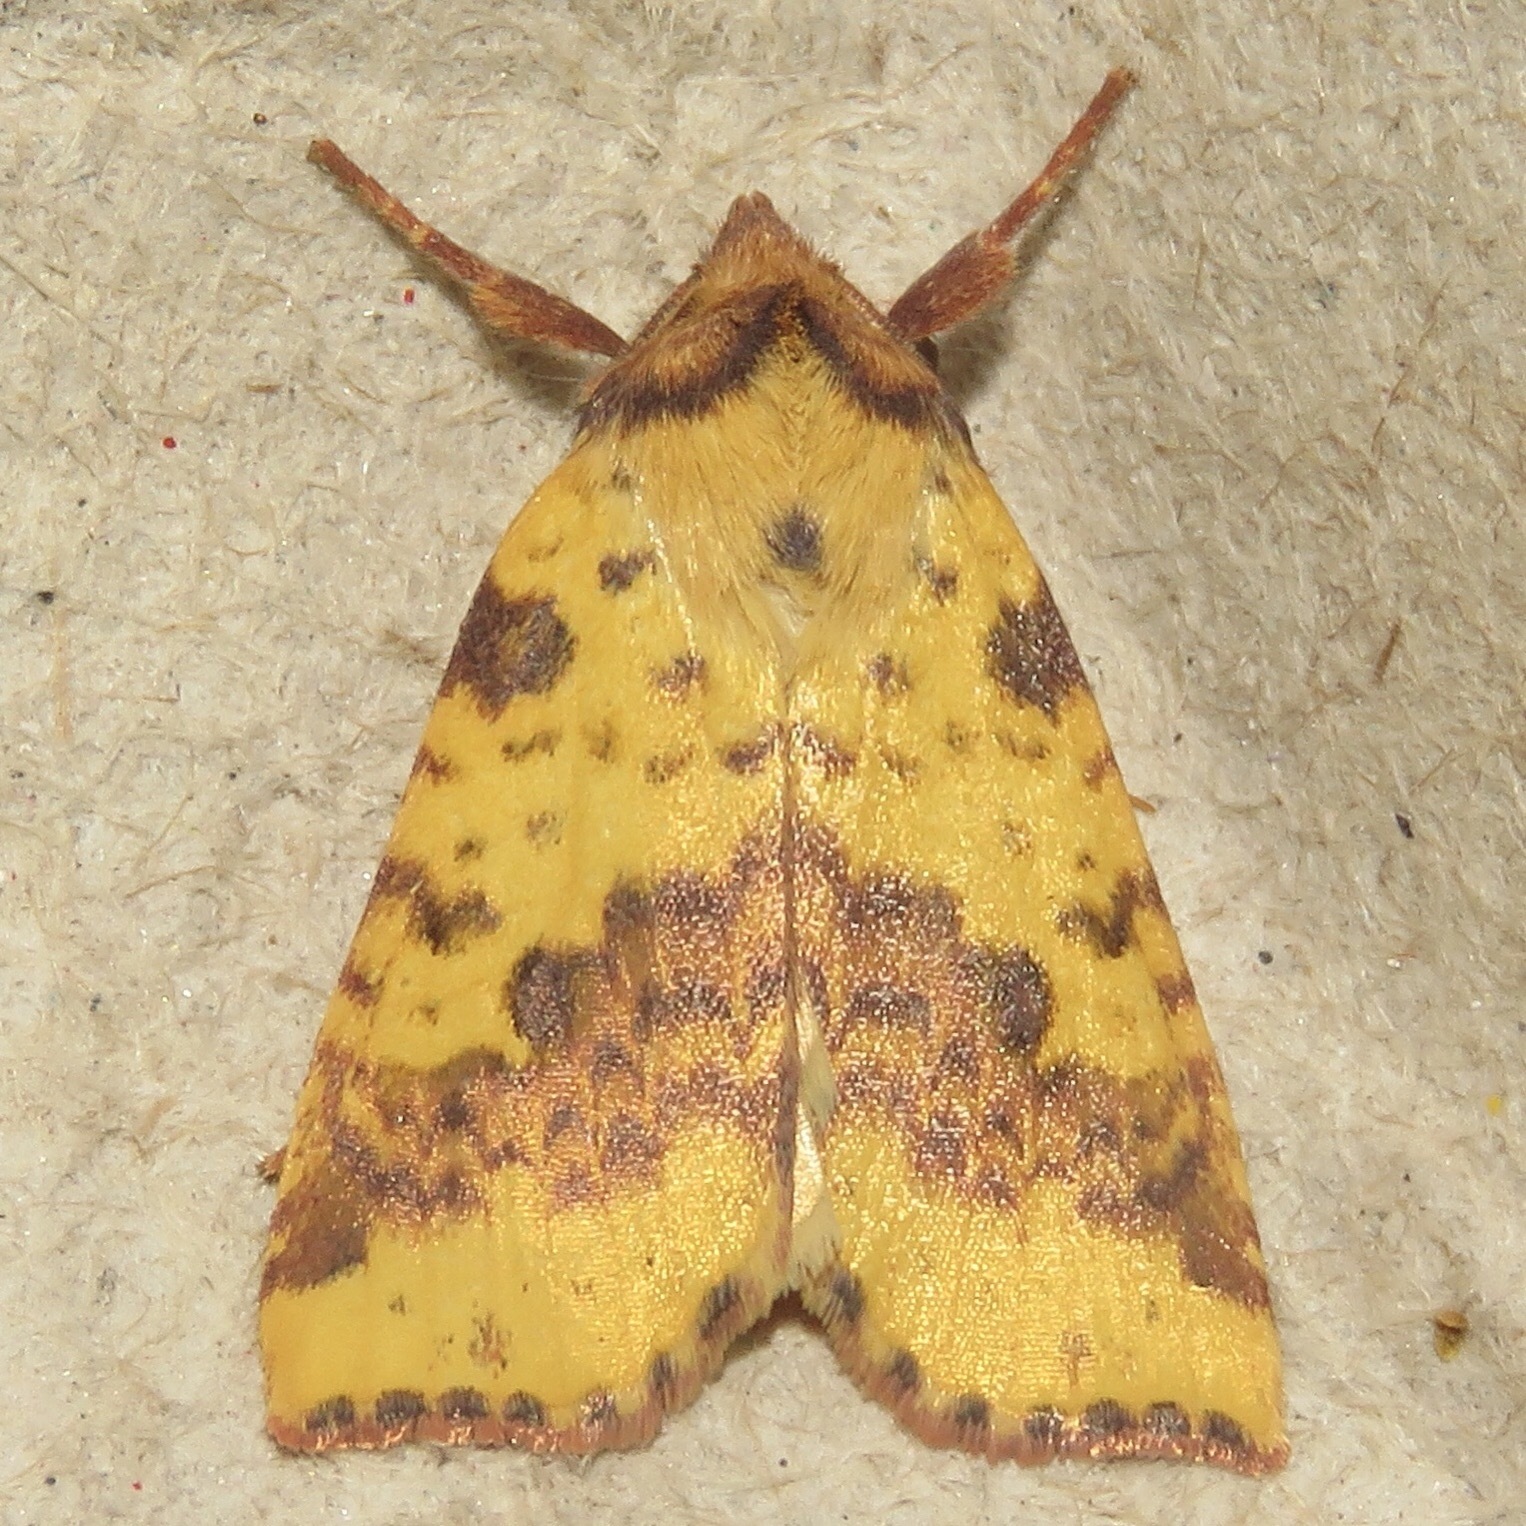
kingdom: Animalia
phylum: Arthropoda
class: Insecta
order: Lepidoptera
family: Noctuidae
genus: Xanthia
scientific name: Xanthia tatago
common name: Pink-banded sallow
